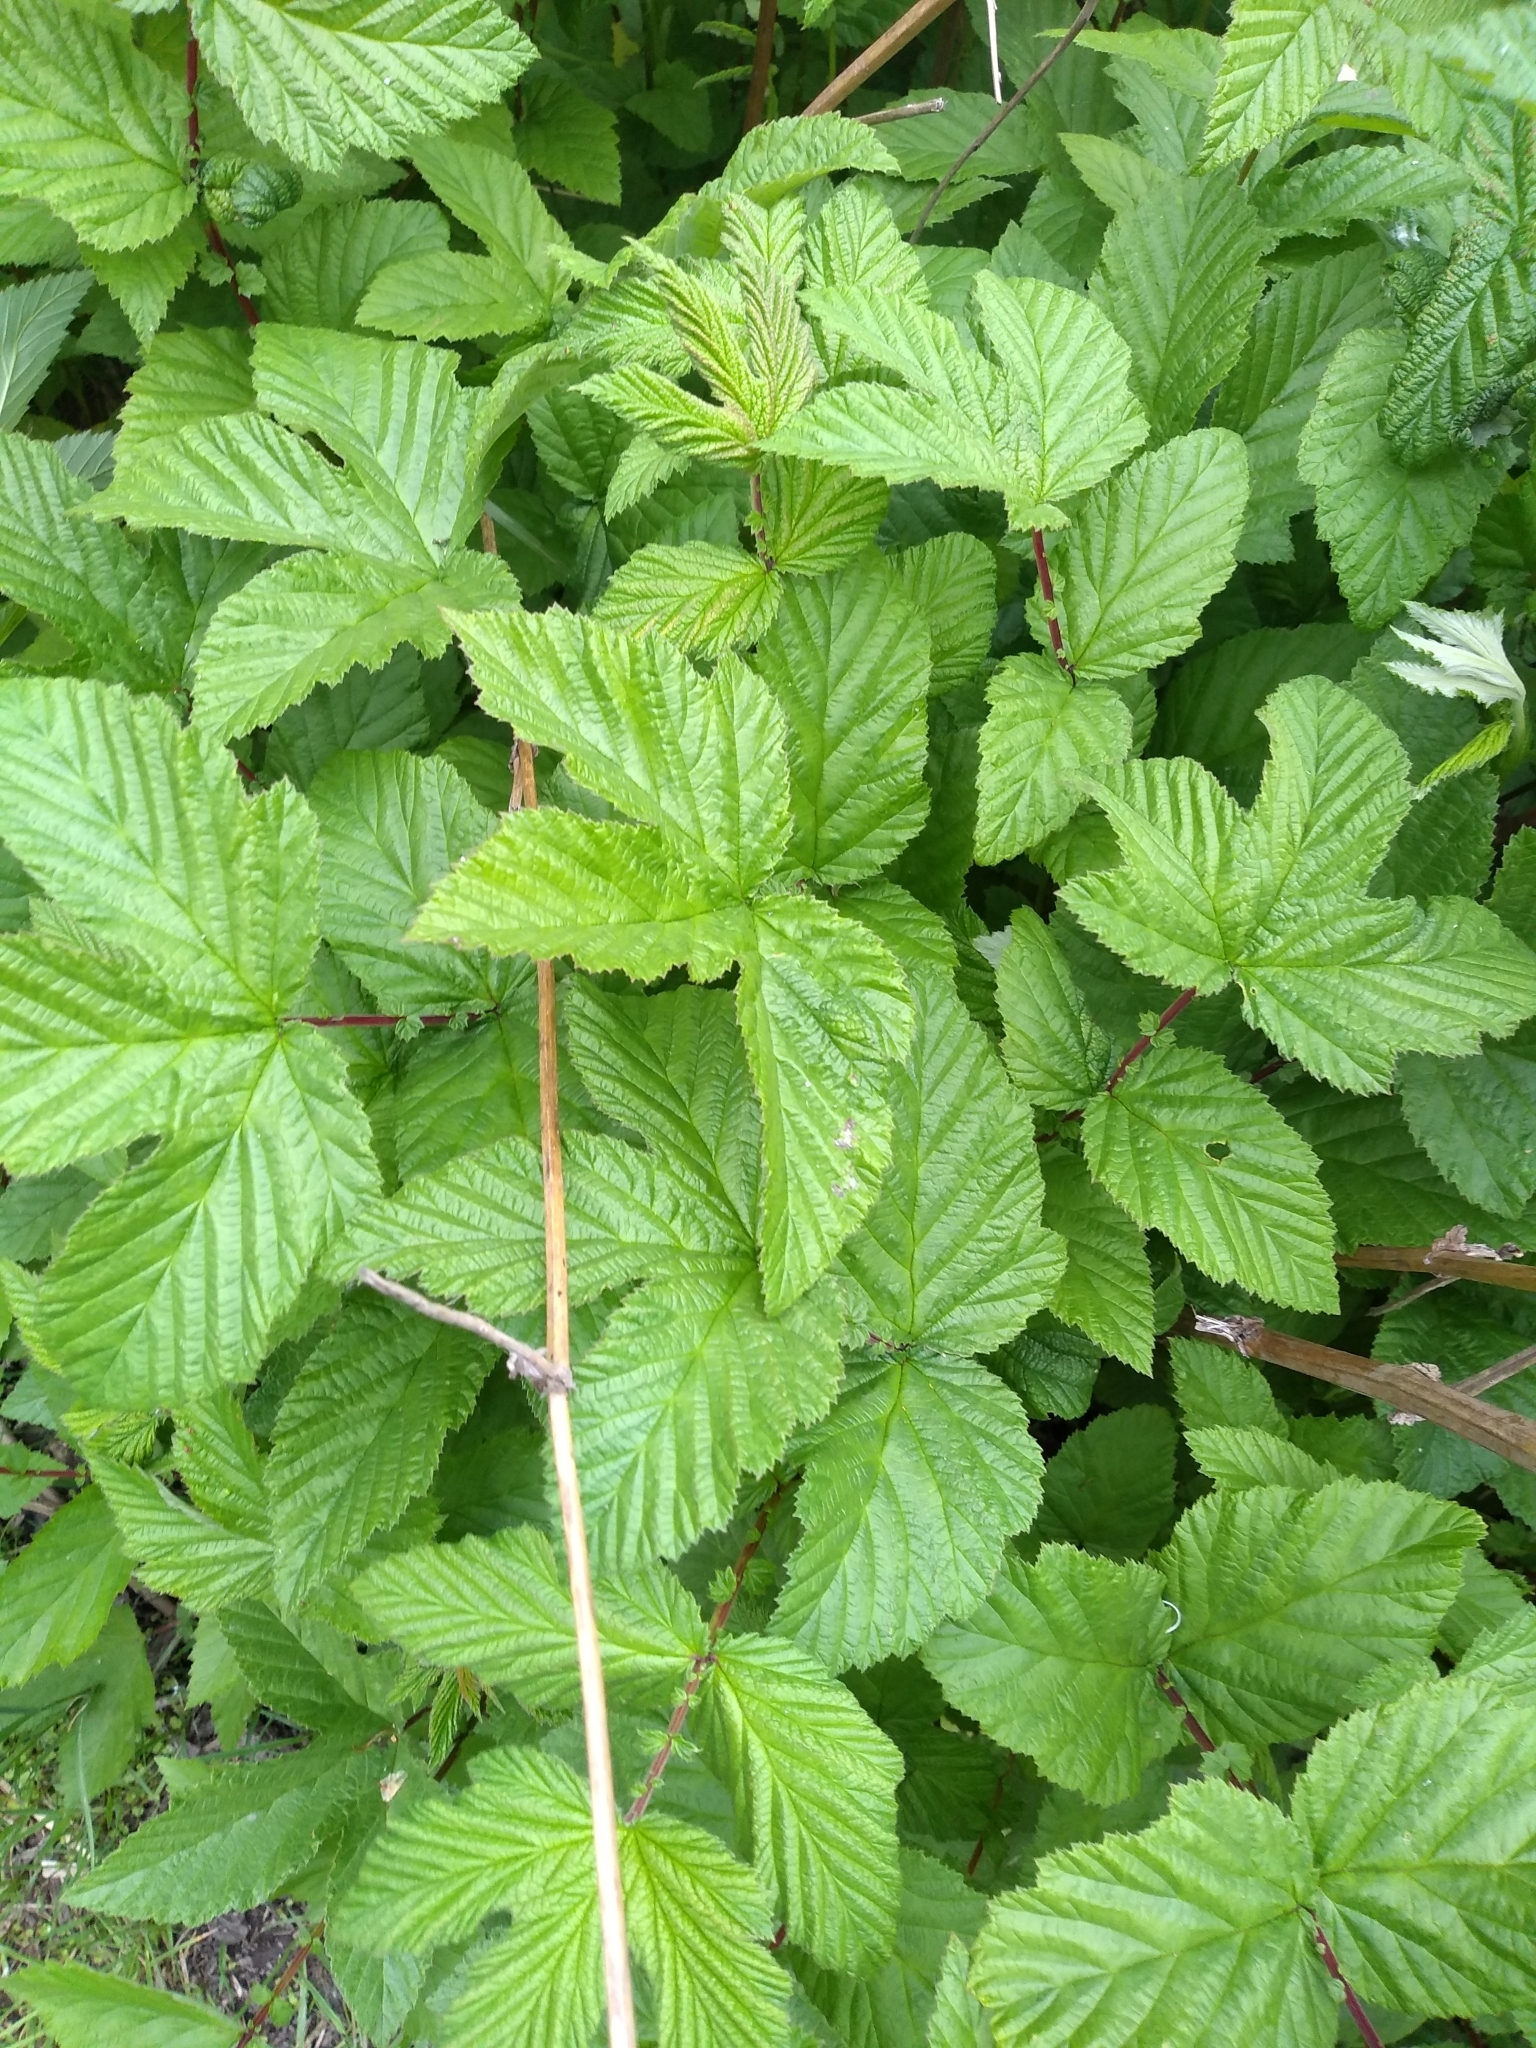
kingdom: Plantae
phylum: Tracheophyta
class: Magnoliopsida
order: Rosales
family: Rosaceae
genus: Filipendula
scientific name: Filipendula ulmaria
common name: Meadowsweet
